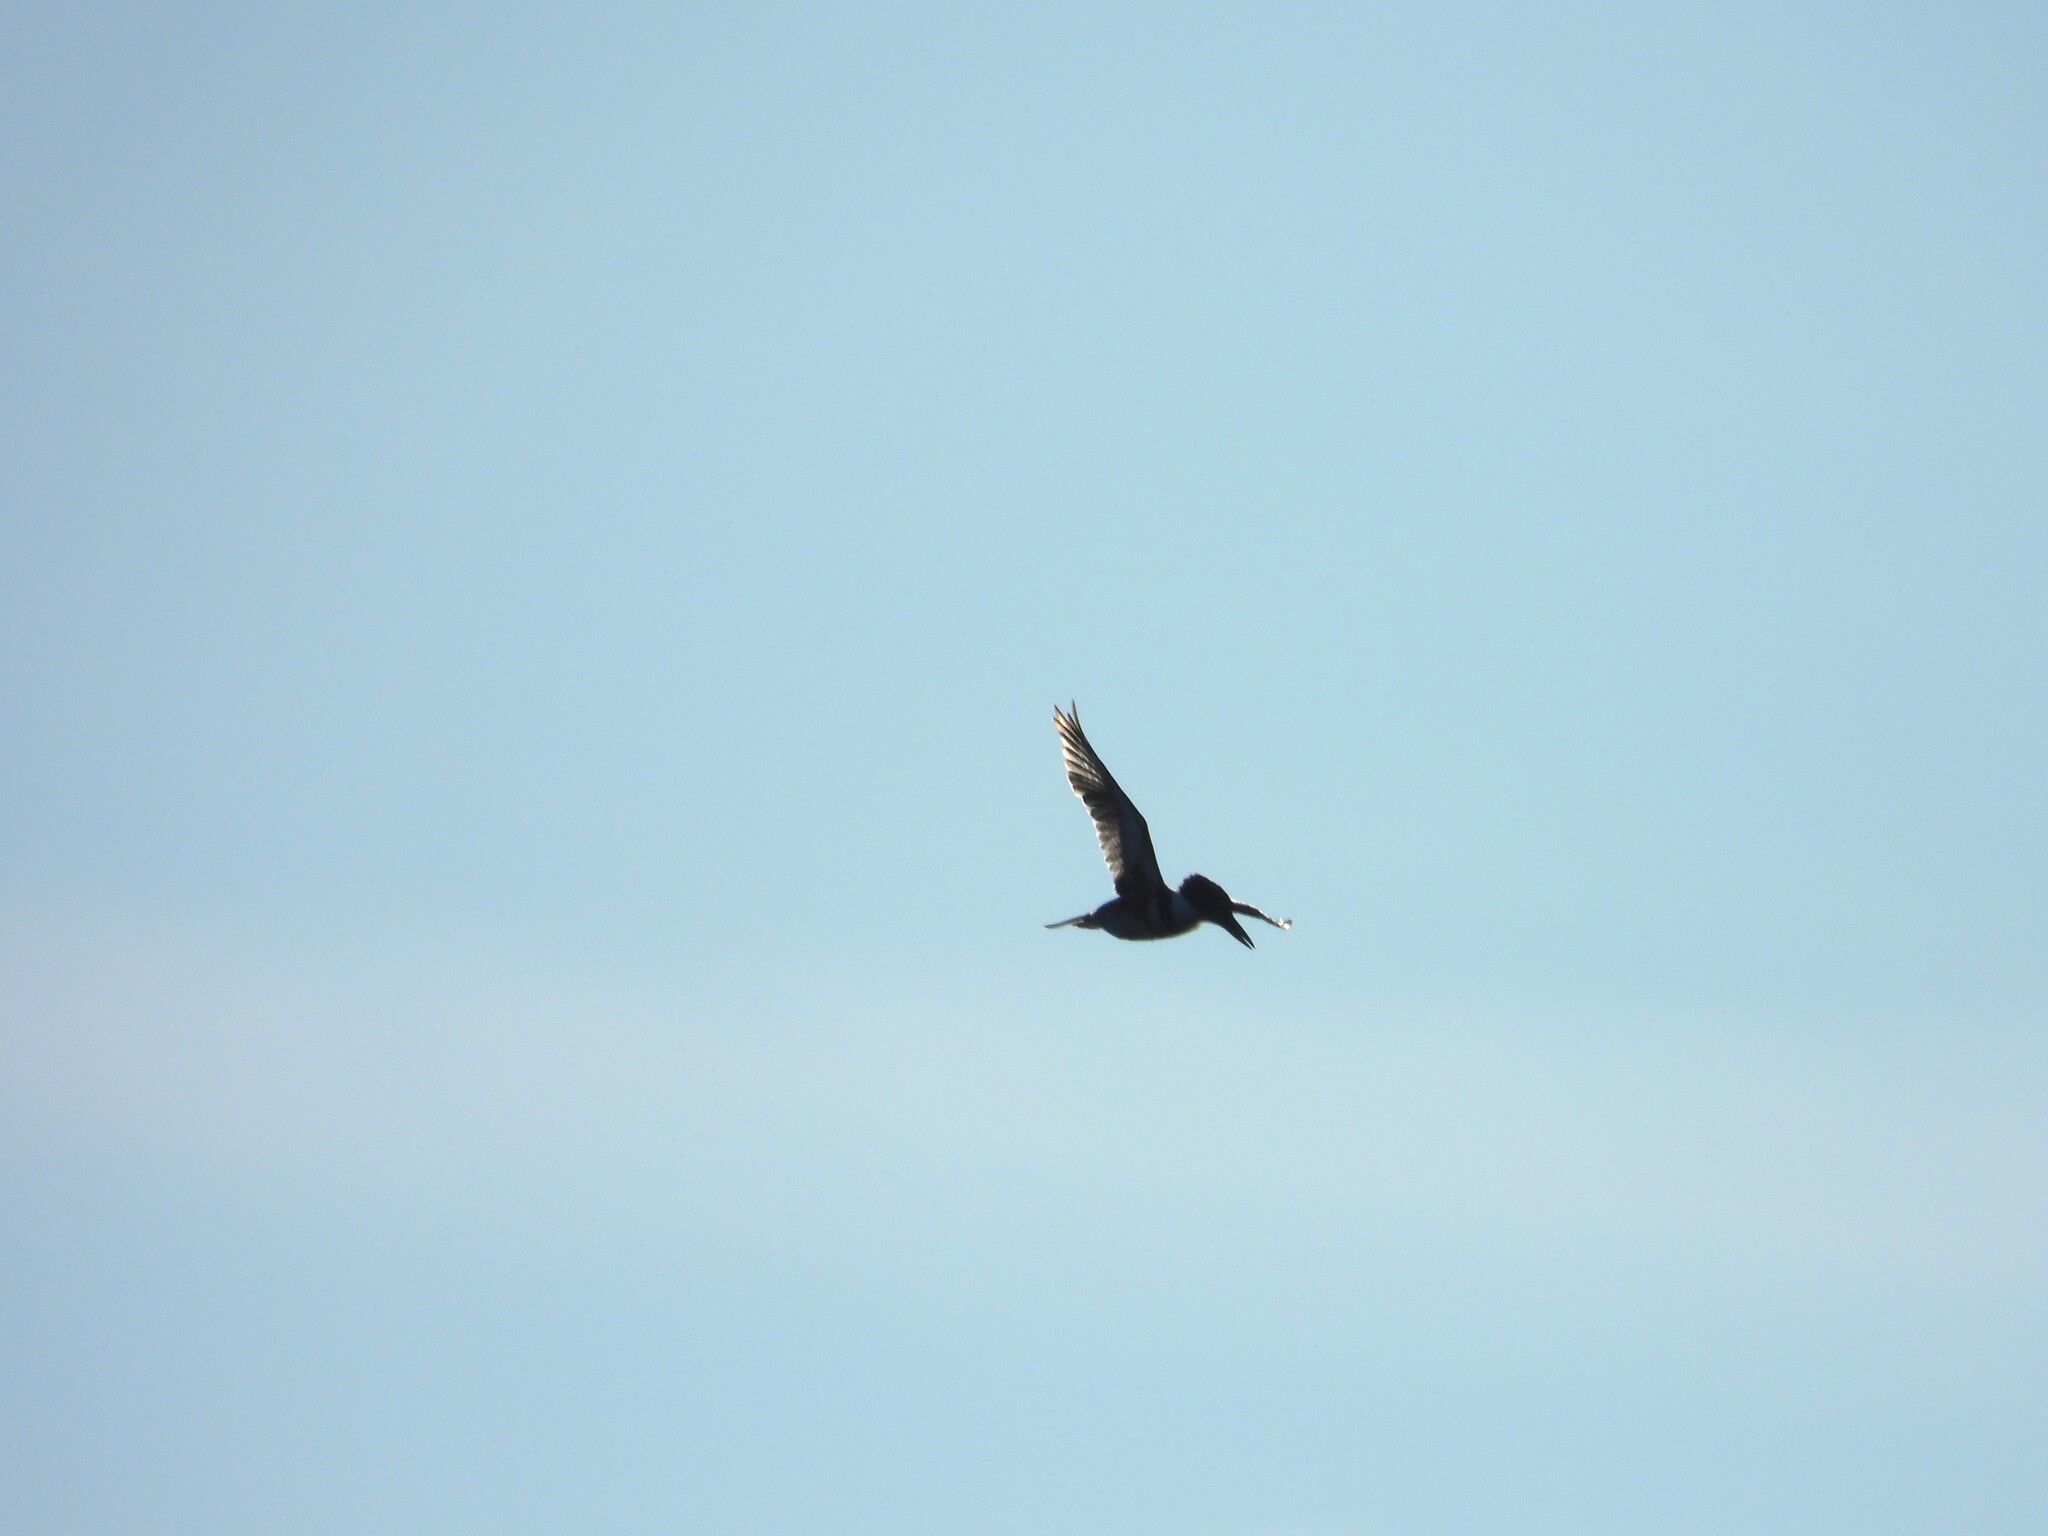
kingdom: Animalia
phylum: Chordata
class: Aves
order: Coraciiformes
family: Alcedinidae
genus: Megaceryle
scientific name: Megaceryle alcyon
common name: Belted kingfisher
